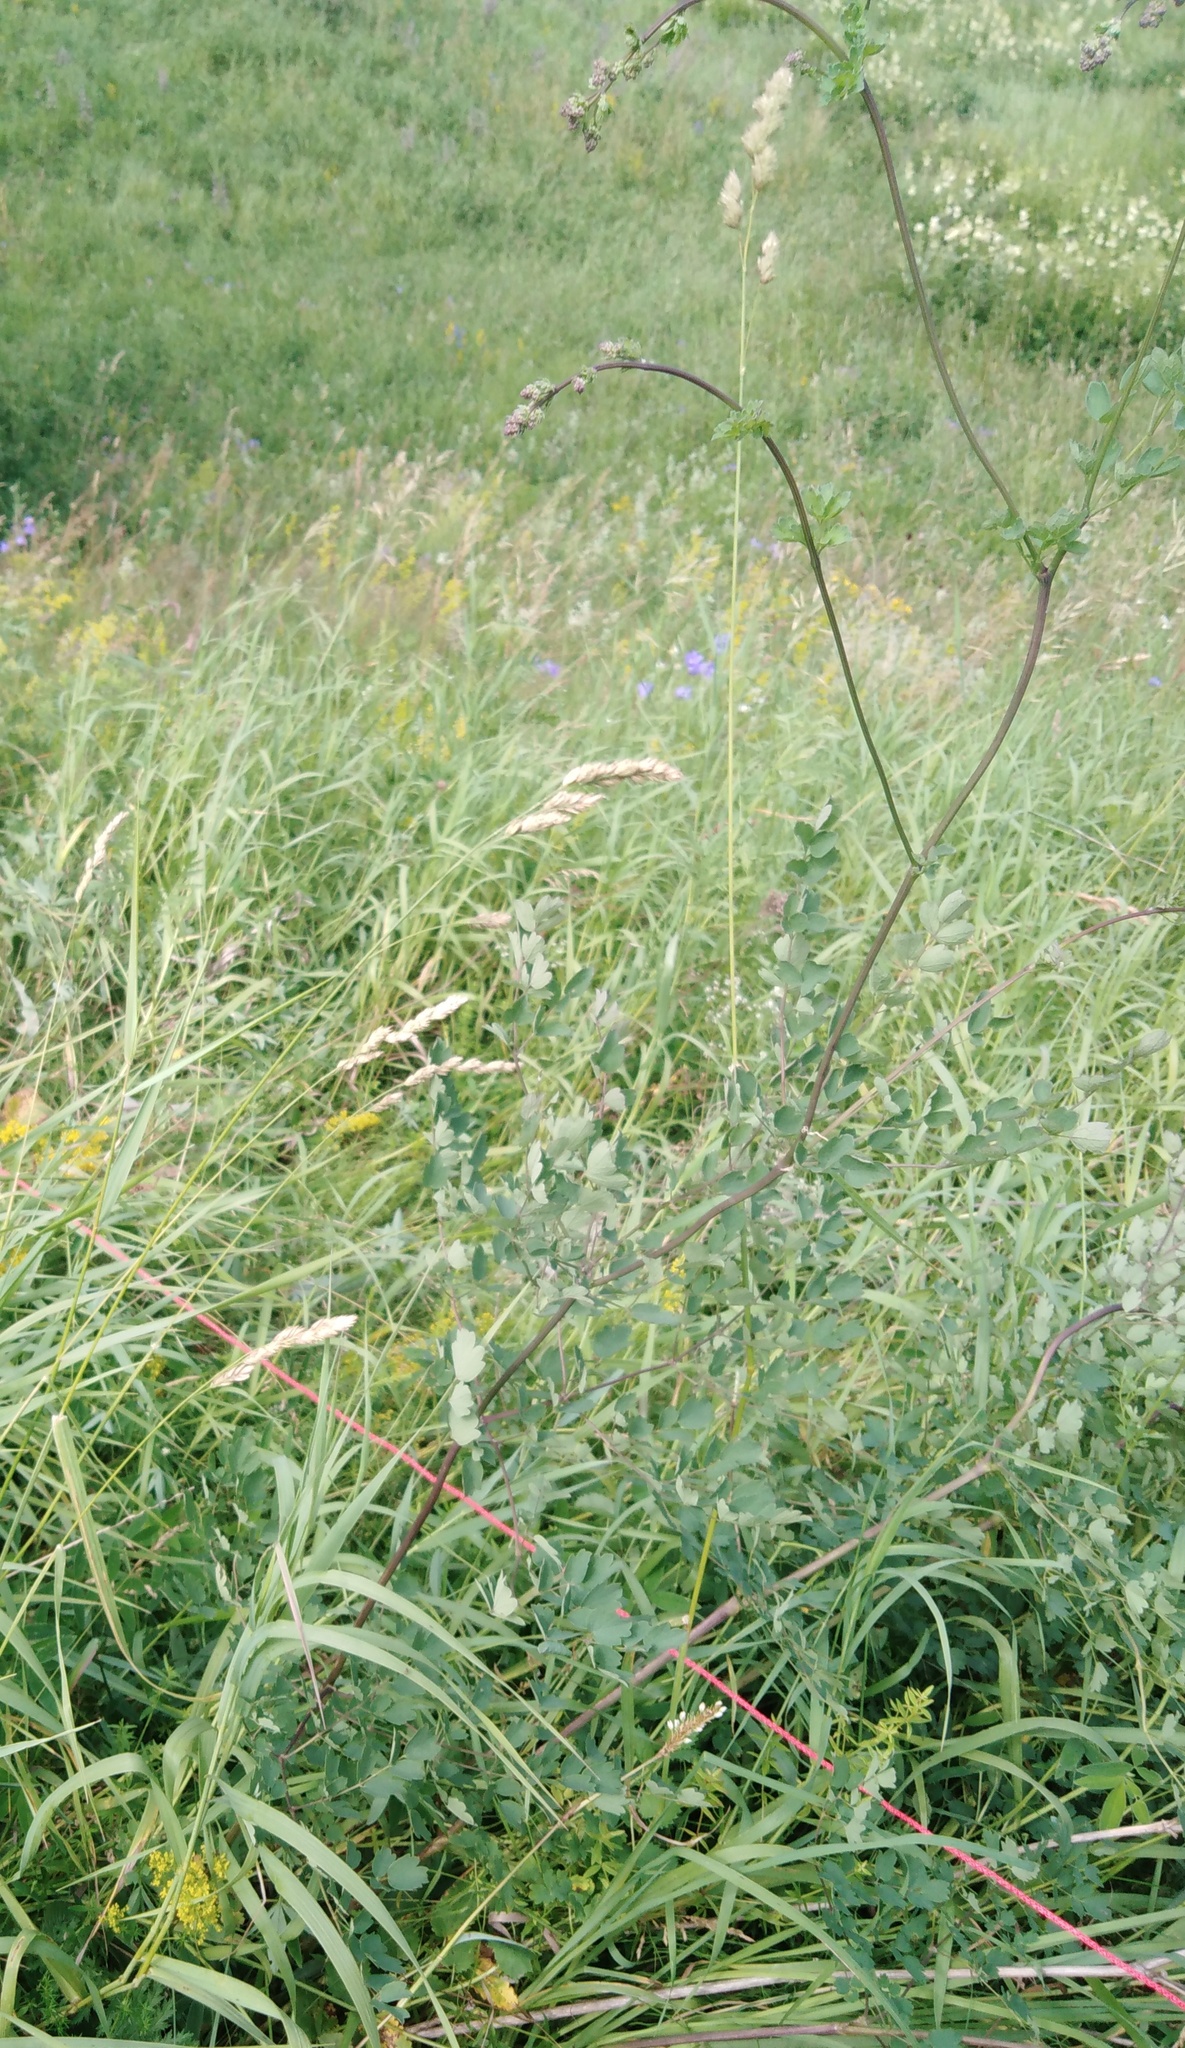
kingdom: Plantae
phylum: Tracheophyta
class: Magnoliopsida
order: Ranunculales
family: Ranunculaceae
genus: Thalictrum
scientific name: Thalictrum minus
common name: Lesser meadow-rue
